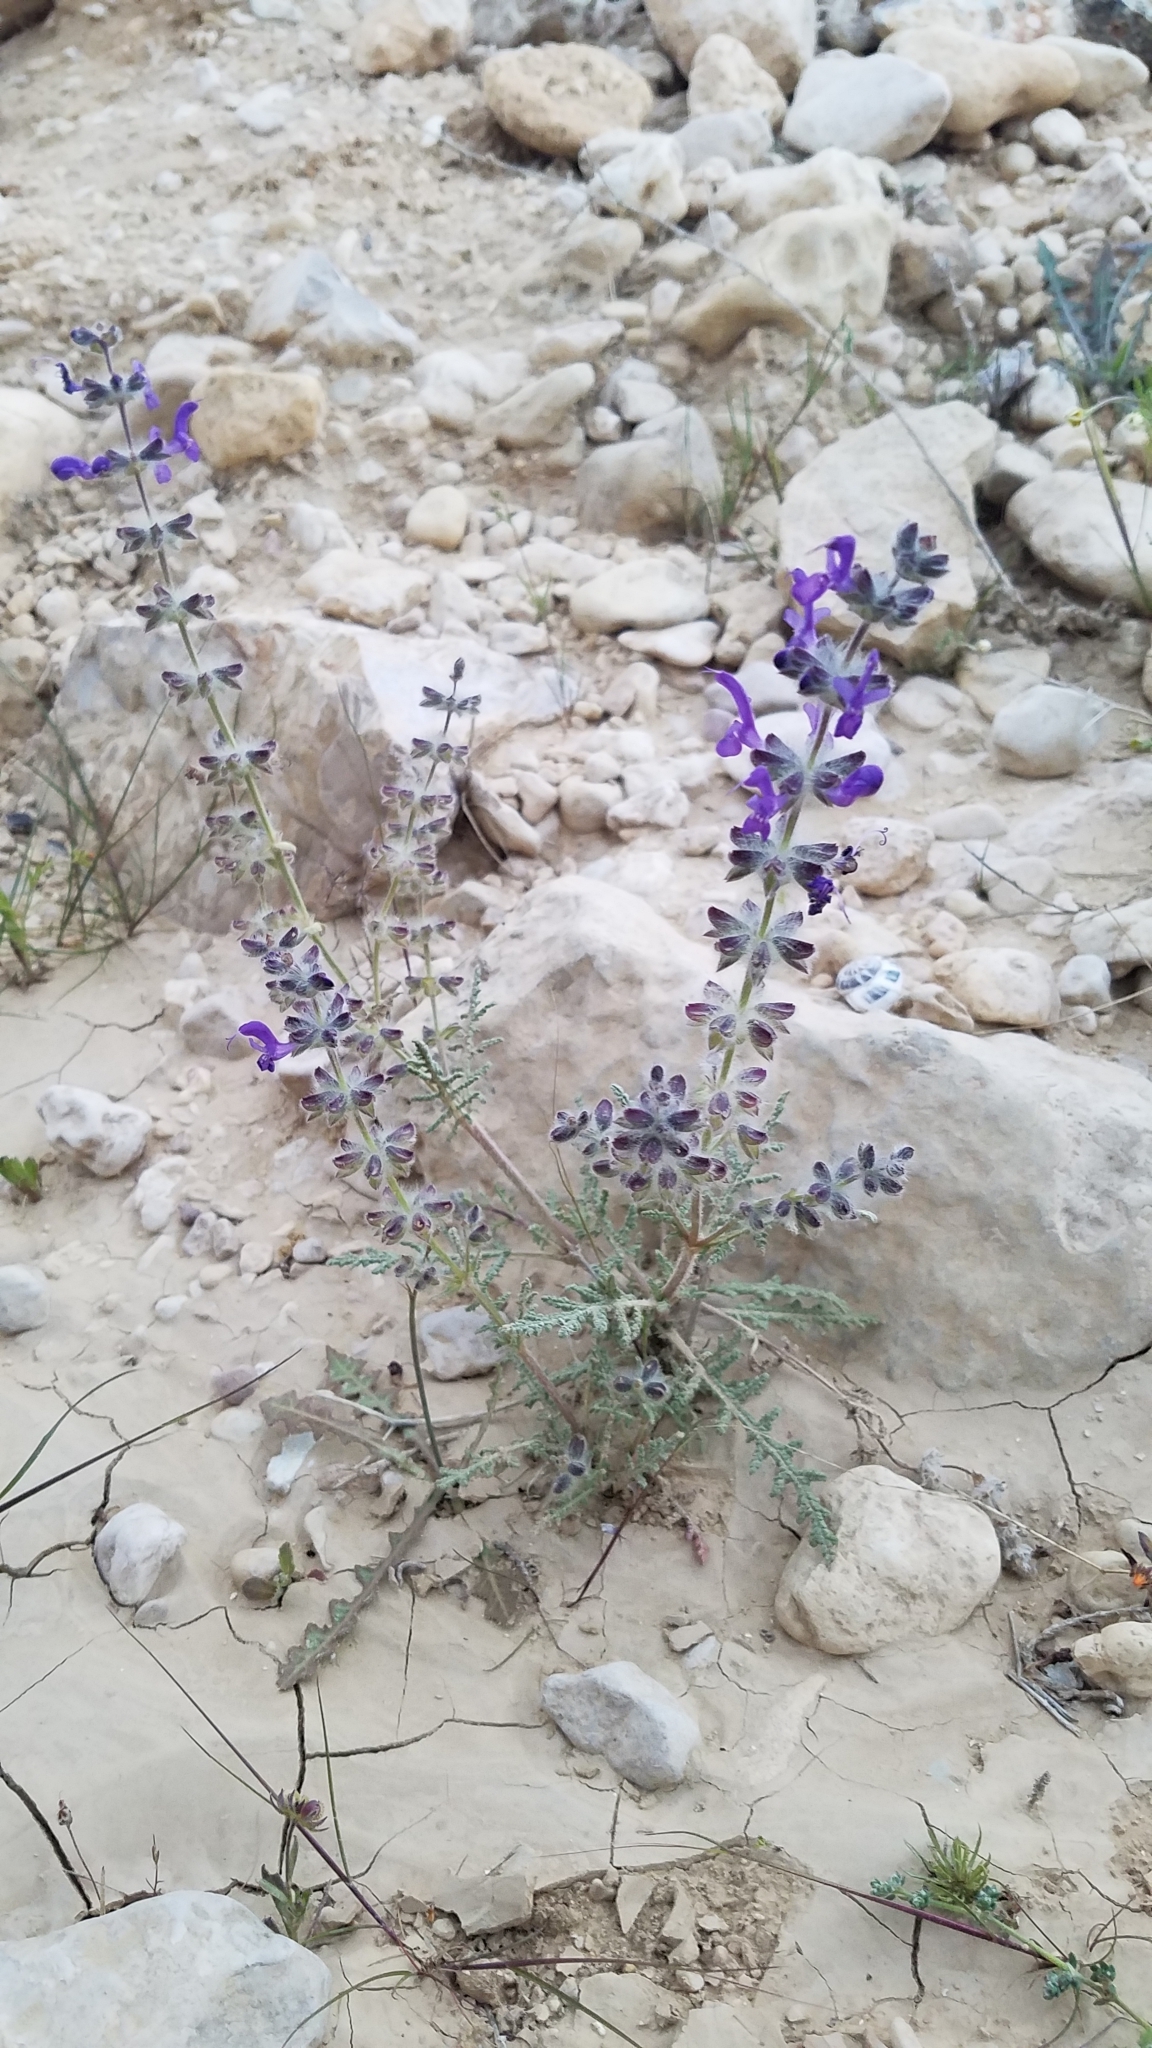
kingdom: Plantae
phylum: Tracheophyta
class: Magnoliopsida
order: Lamiales
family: Lamiaceae
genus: Salvia
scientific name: Salvia lanigera
